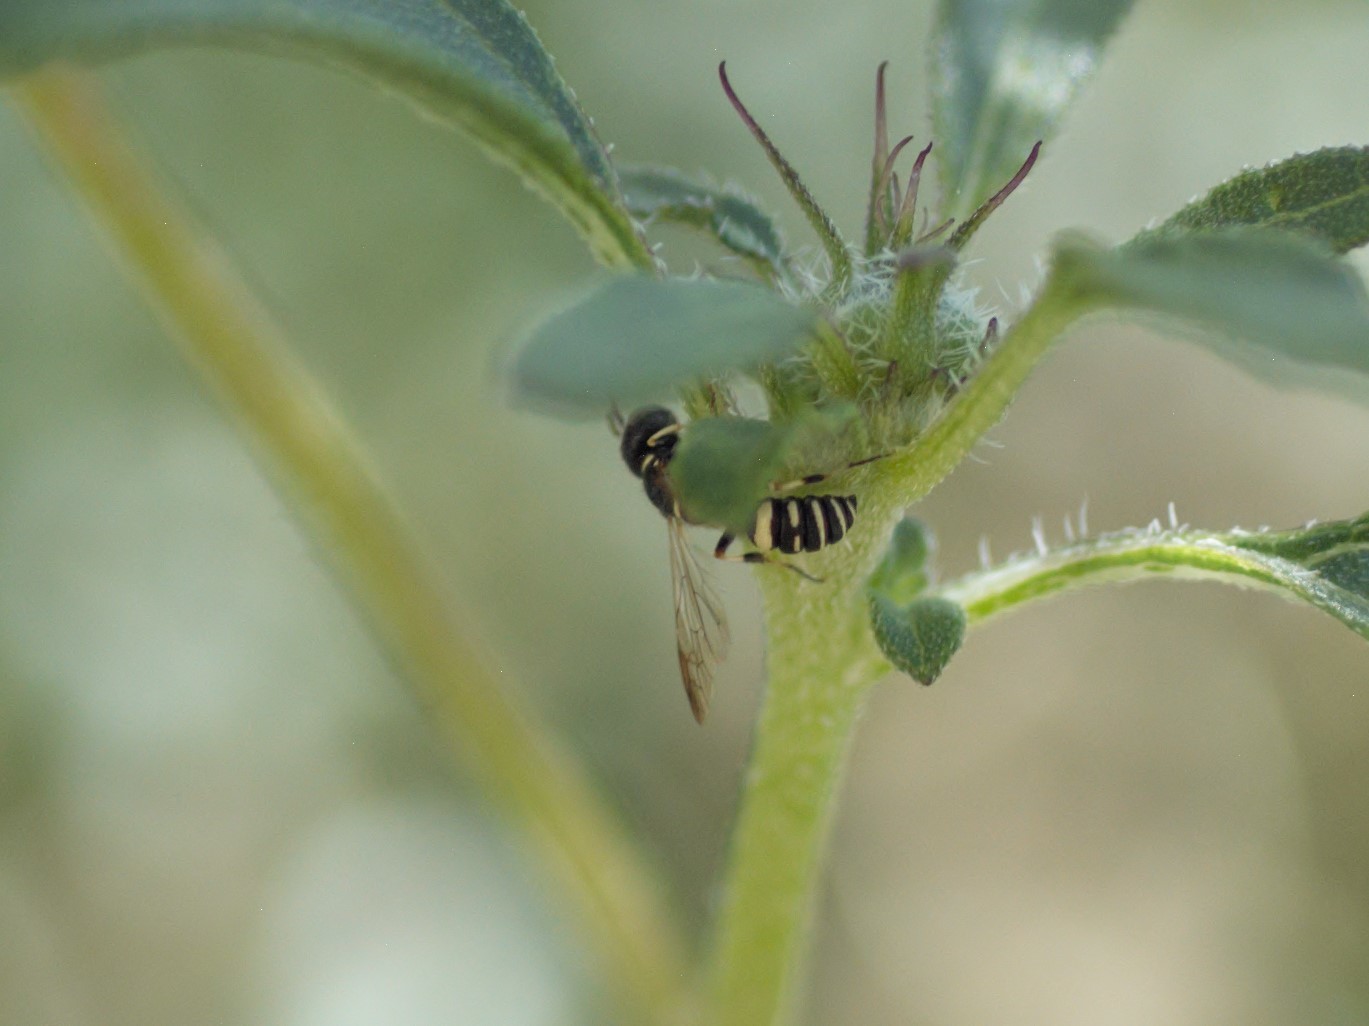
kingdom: Animalia
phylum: Arthropoda
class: Insecta
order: Hymenoptera
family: Crabronidae
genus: Cerceris
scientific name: Cerceris convergens
